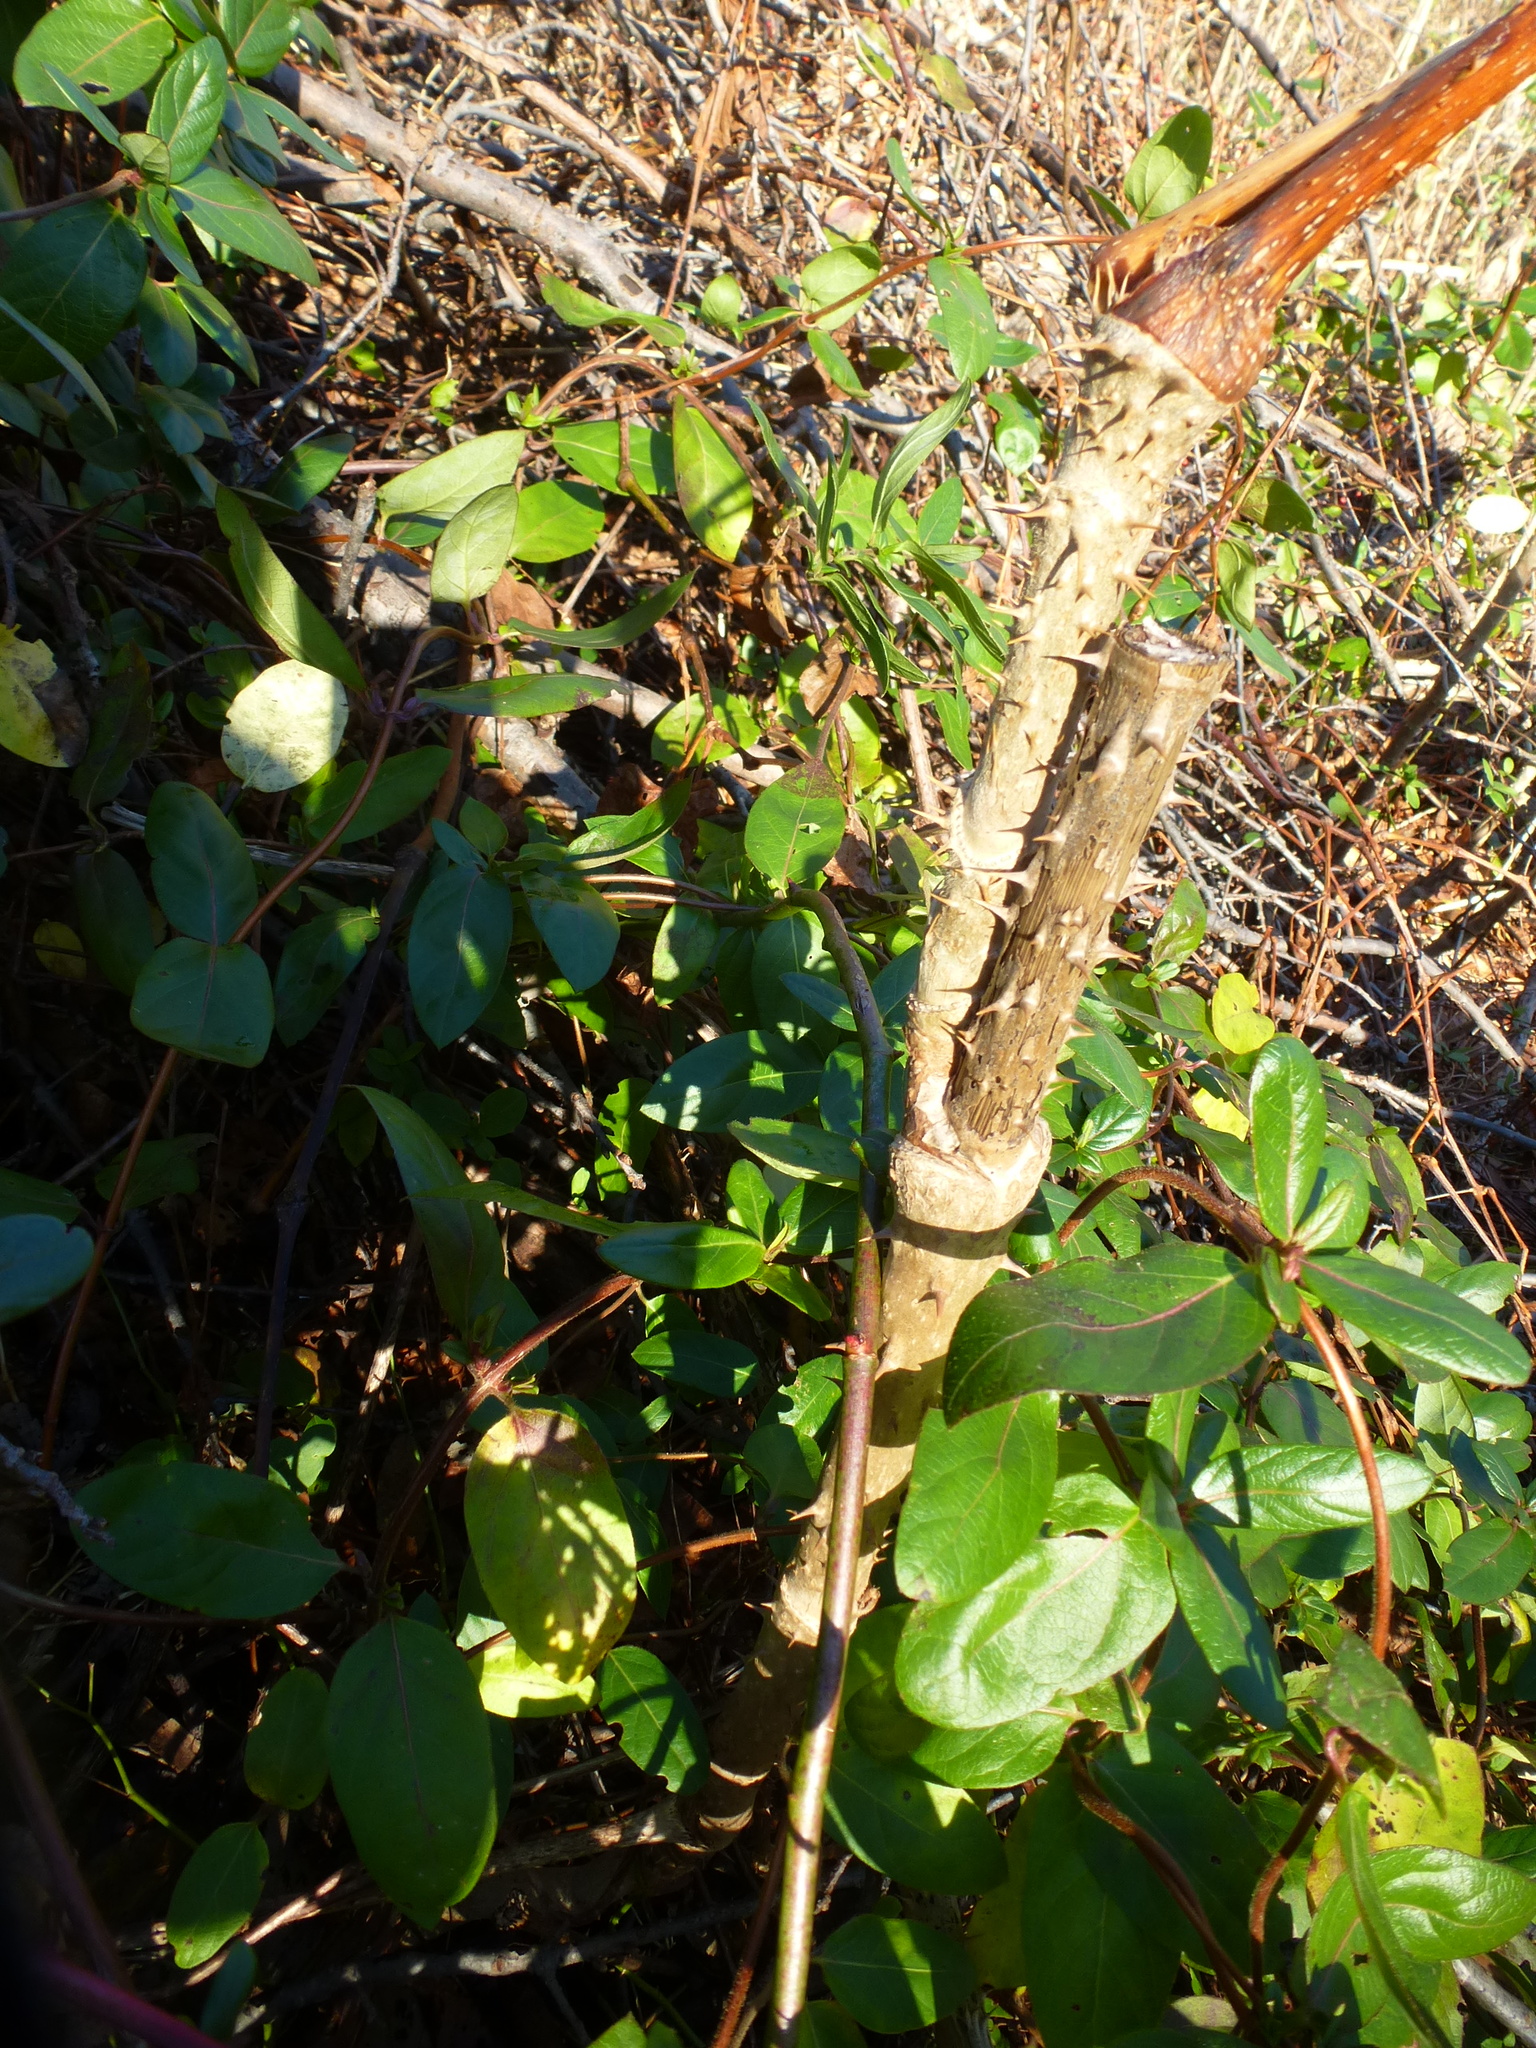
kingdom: Plantae
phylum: Tracheophyta
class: Magnoliopsida
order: Apiales
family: Araliaceae
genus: Aralia
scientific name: Aralia elata
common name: Japanese angelica-tree
